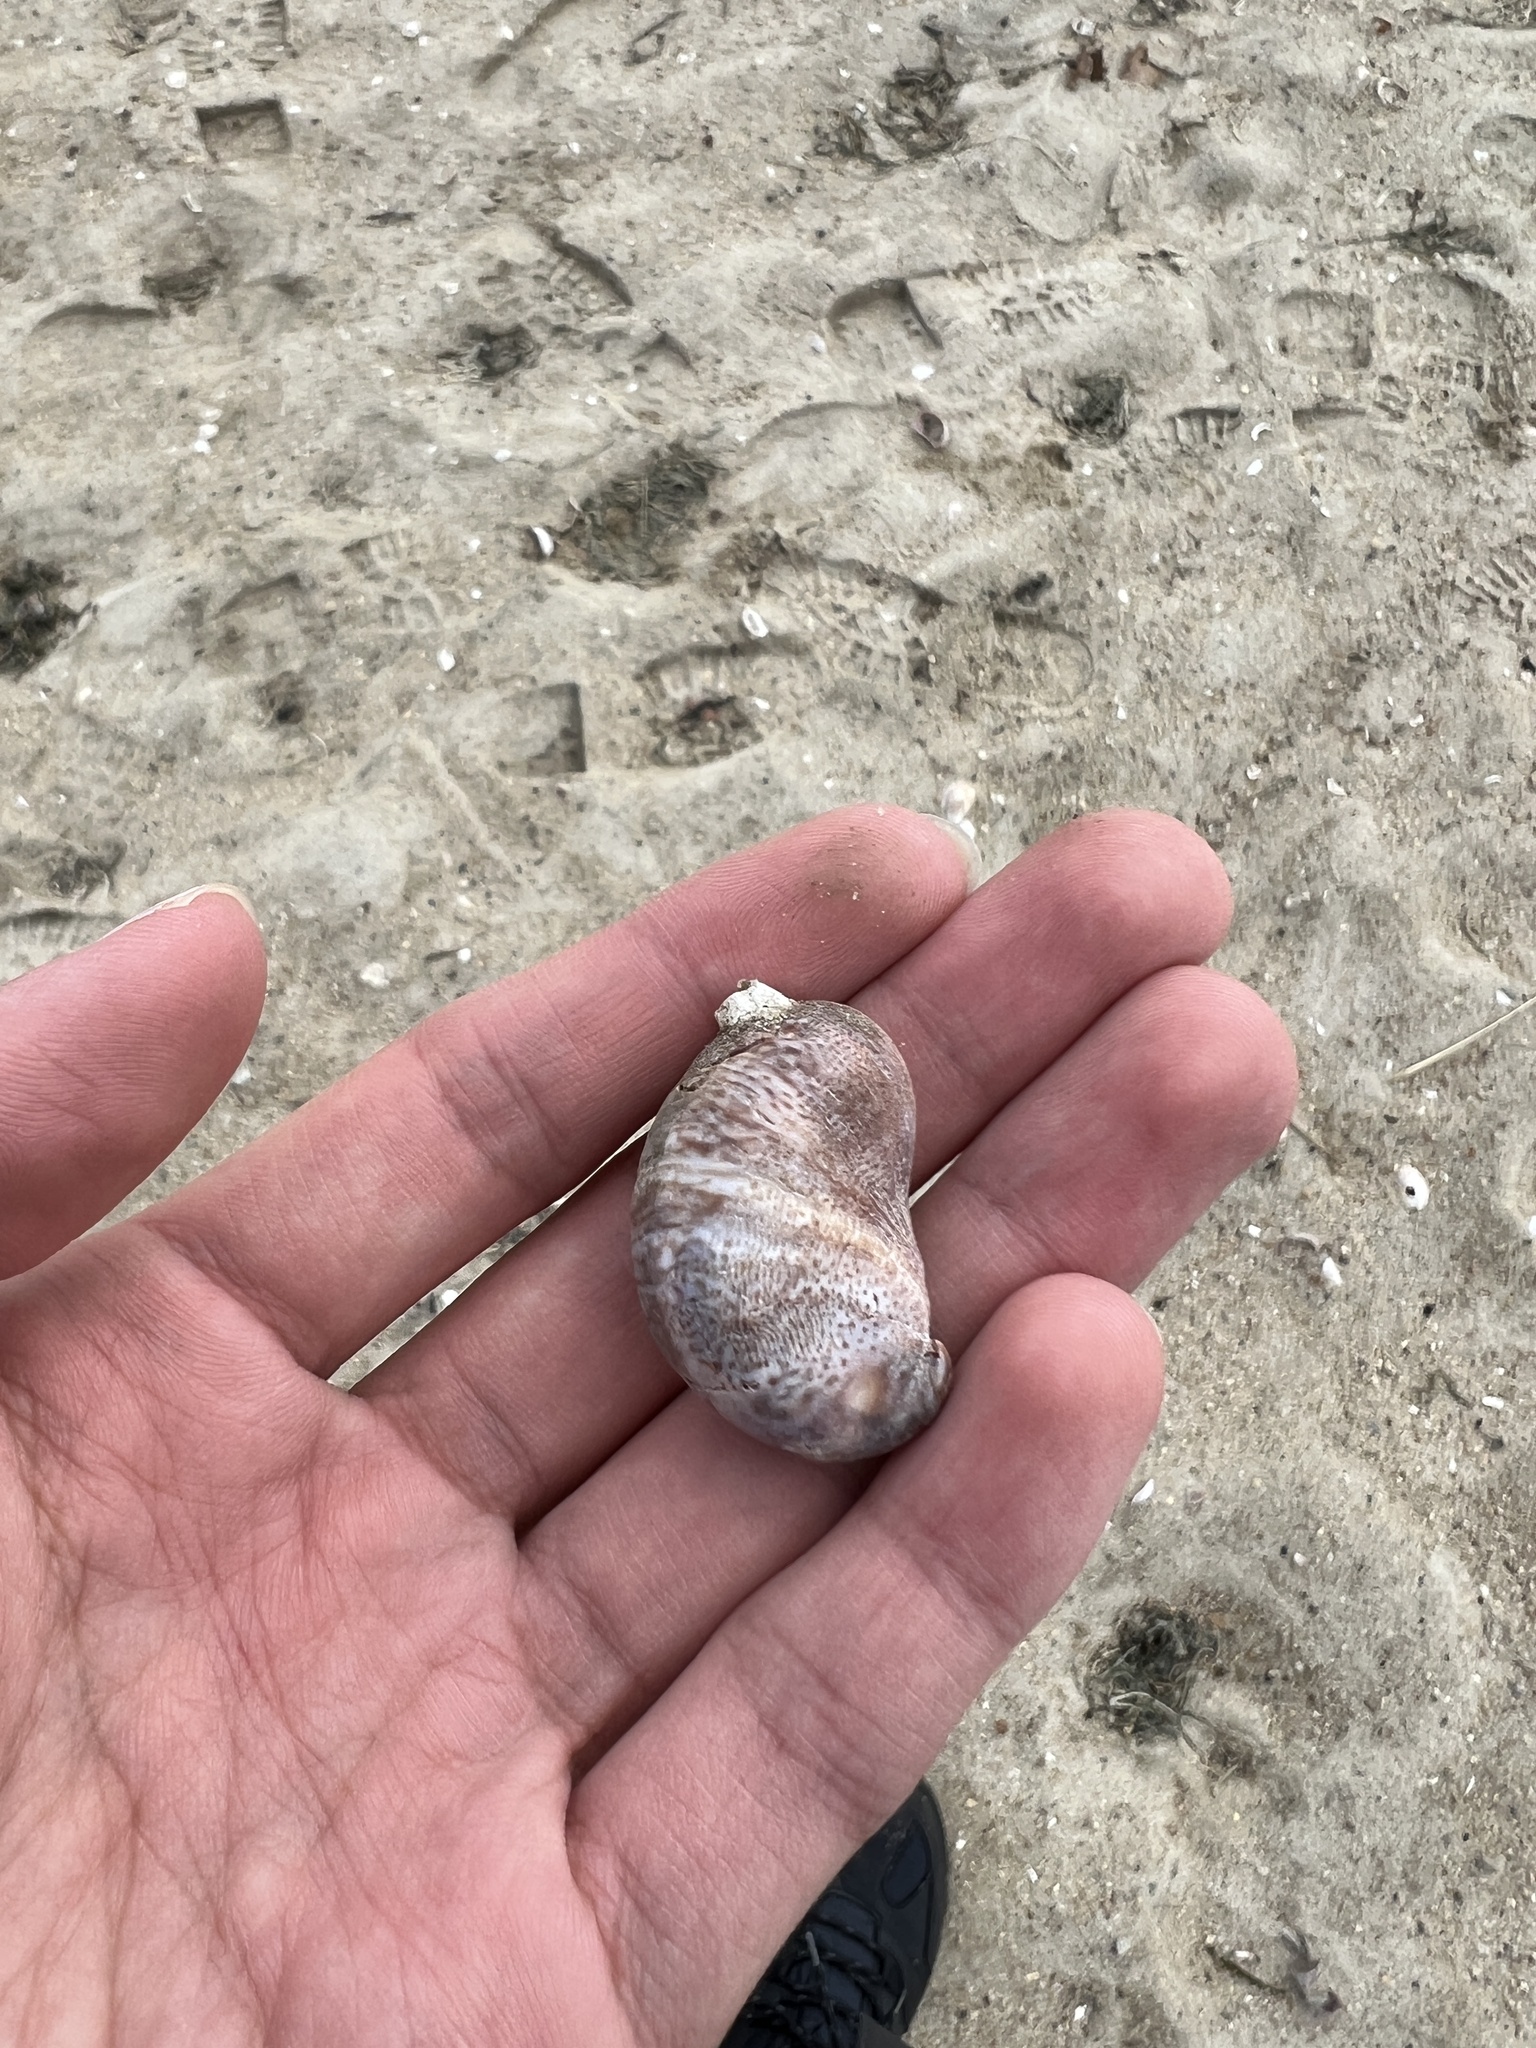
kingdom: Animalia
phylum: Mollusca
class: Gastropoda
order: Littorinimorpha
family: Calyptraeidae
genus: Crepidula
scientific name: Crepidula fornicata
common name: Slipper limpet
